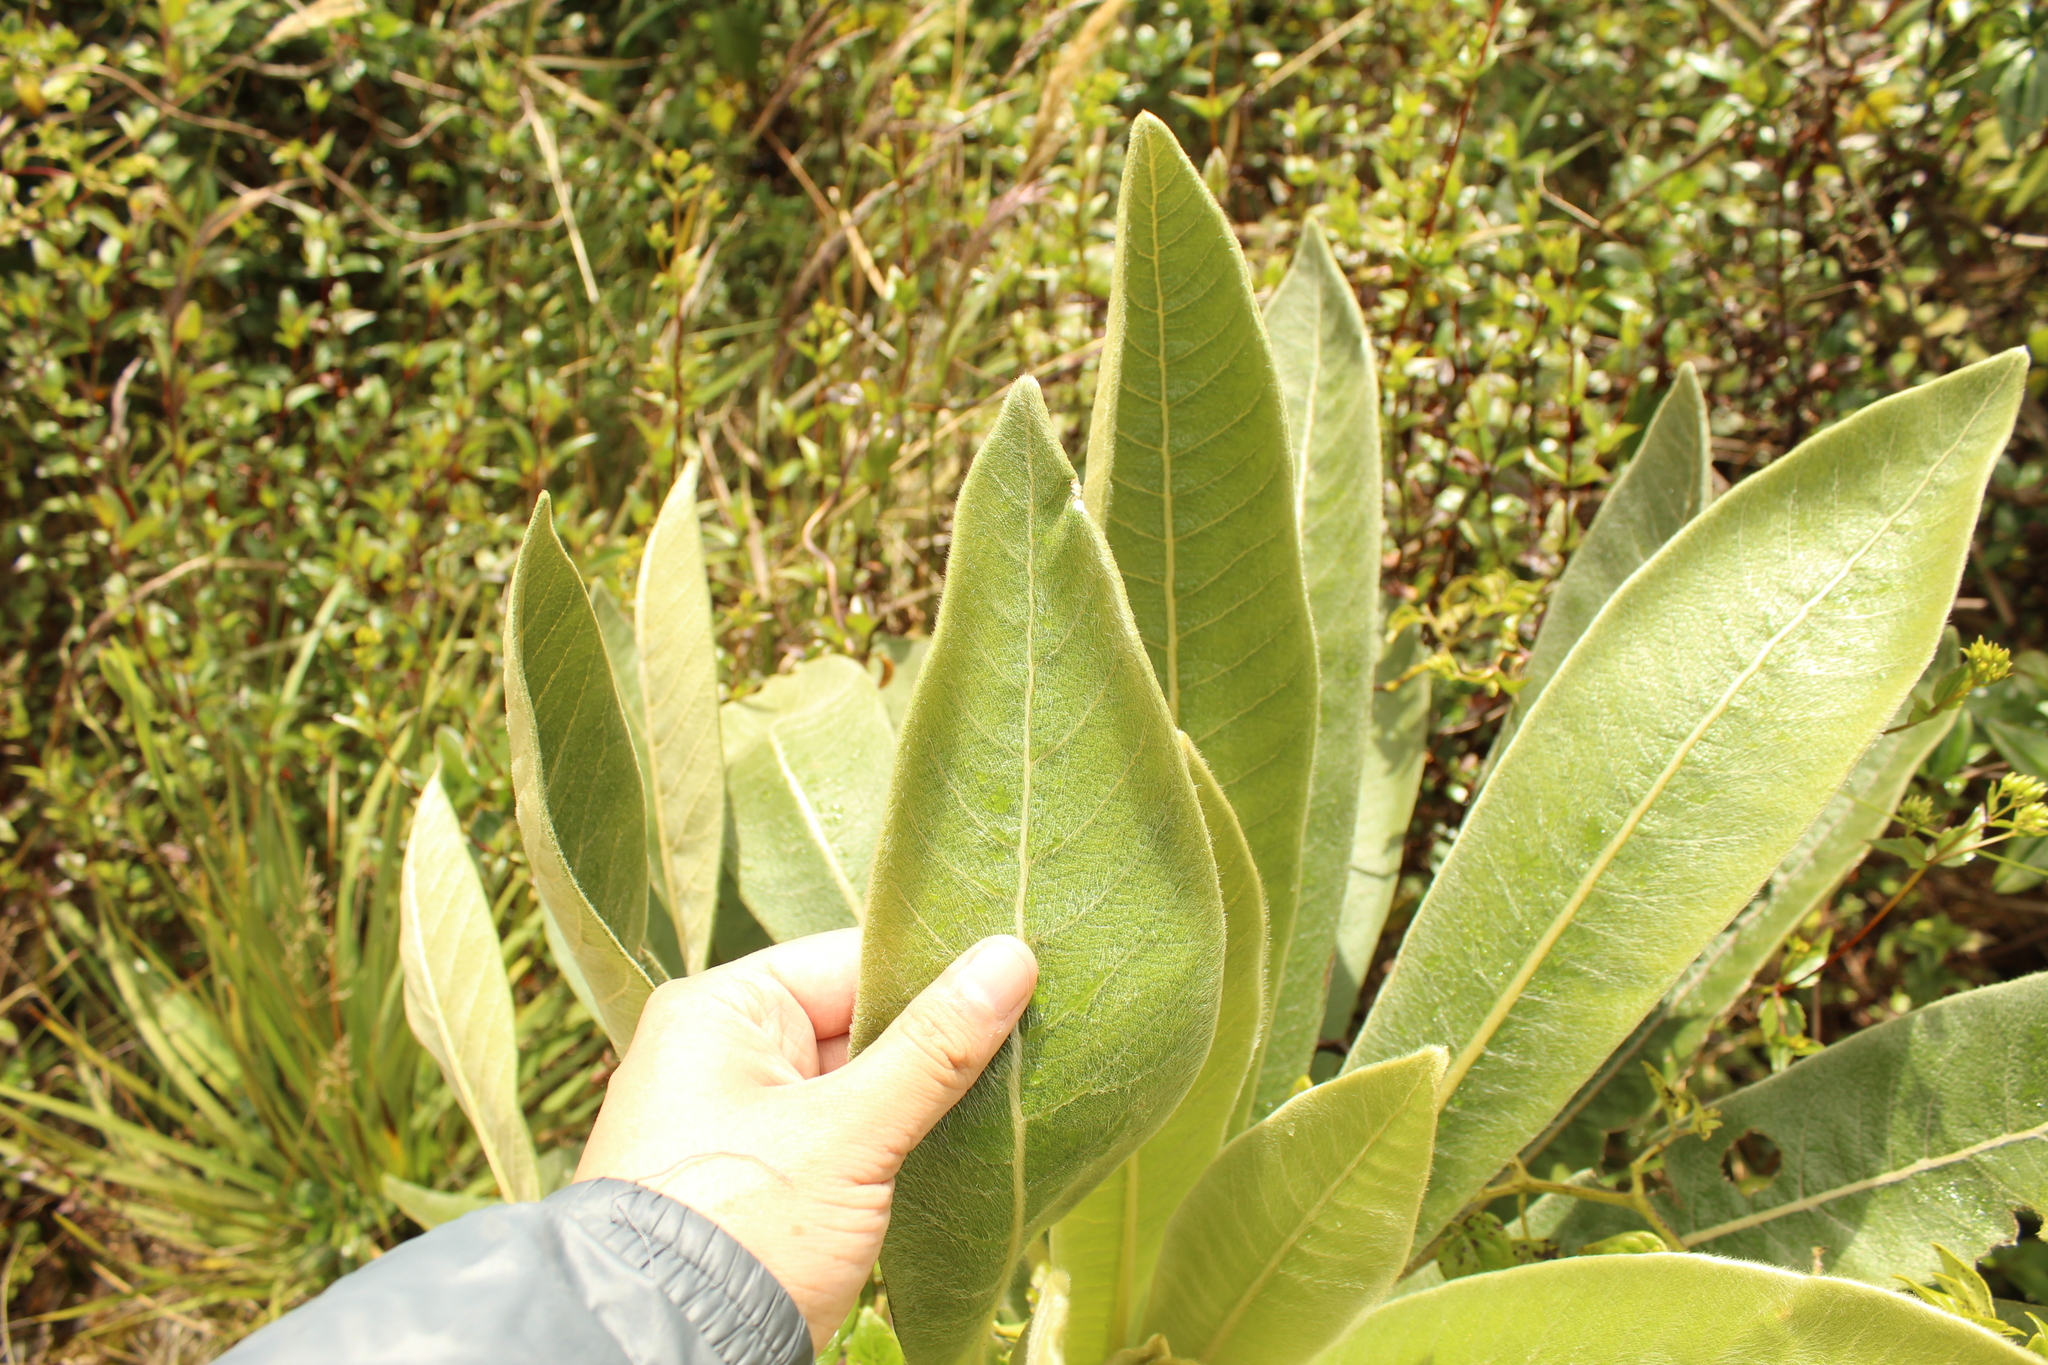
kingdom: Plantae
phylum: Tracheophyta
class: Magnoliopsida
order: Asterales
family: Asteraceae
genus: Espeletia
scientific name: Espeletia pleiochasia
